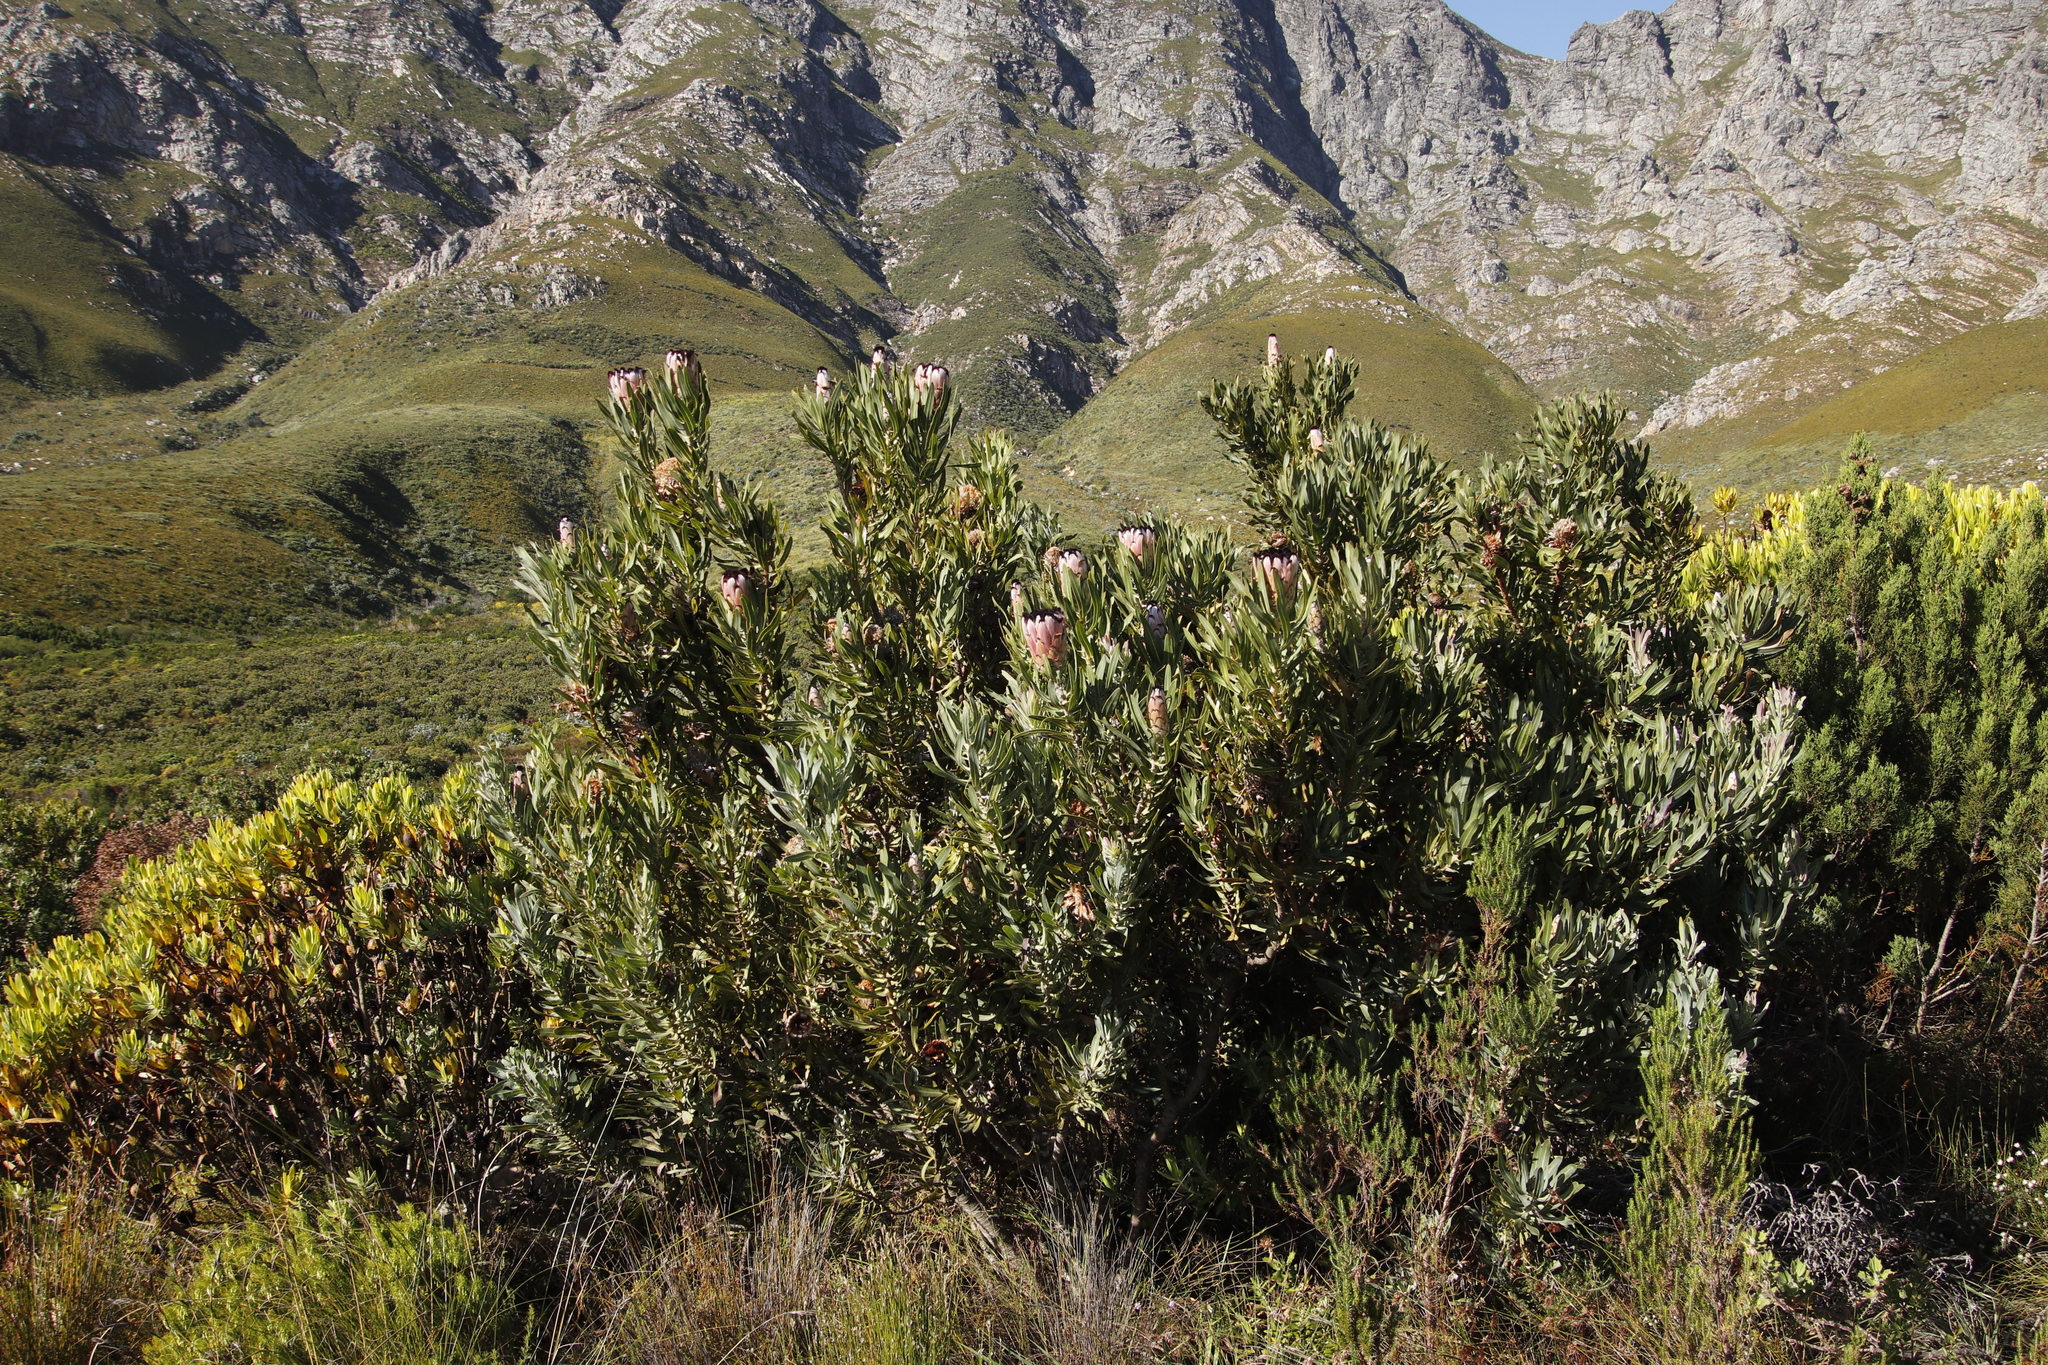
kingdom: Plantae
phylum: Tracheophyta
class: Magnoliopsida
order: Proteales
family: Proteaceae
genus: Protea
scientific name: Protea laurifolia
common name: Grey-leaf sugarbsh
